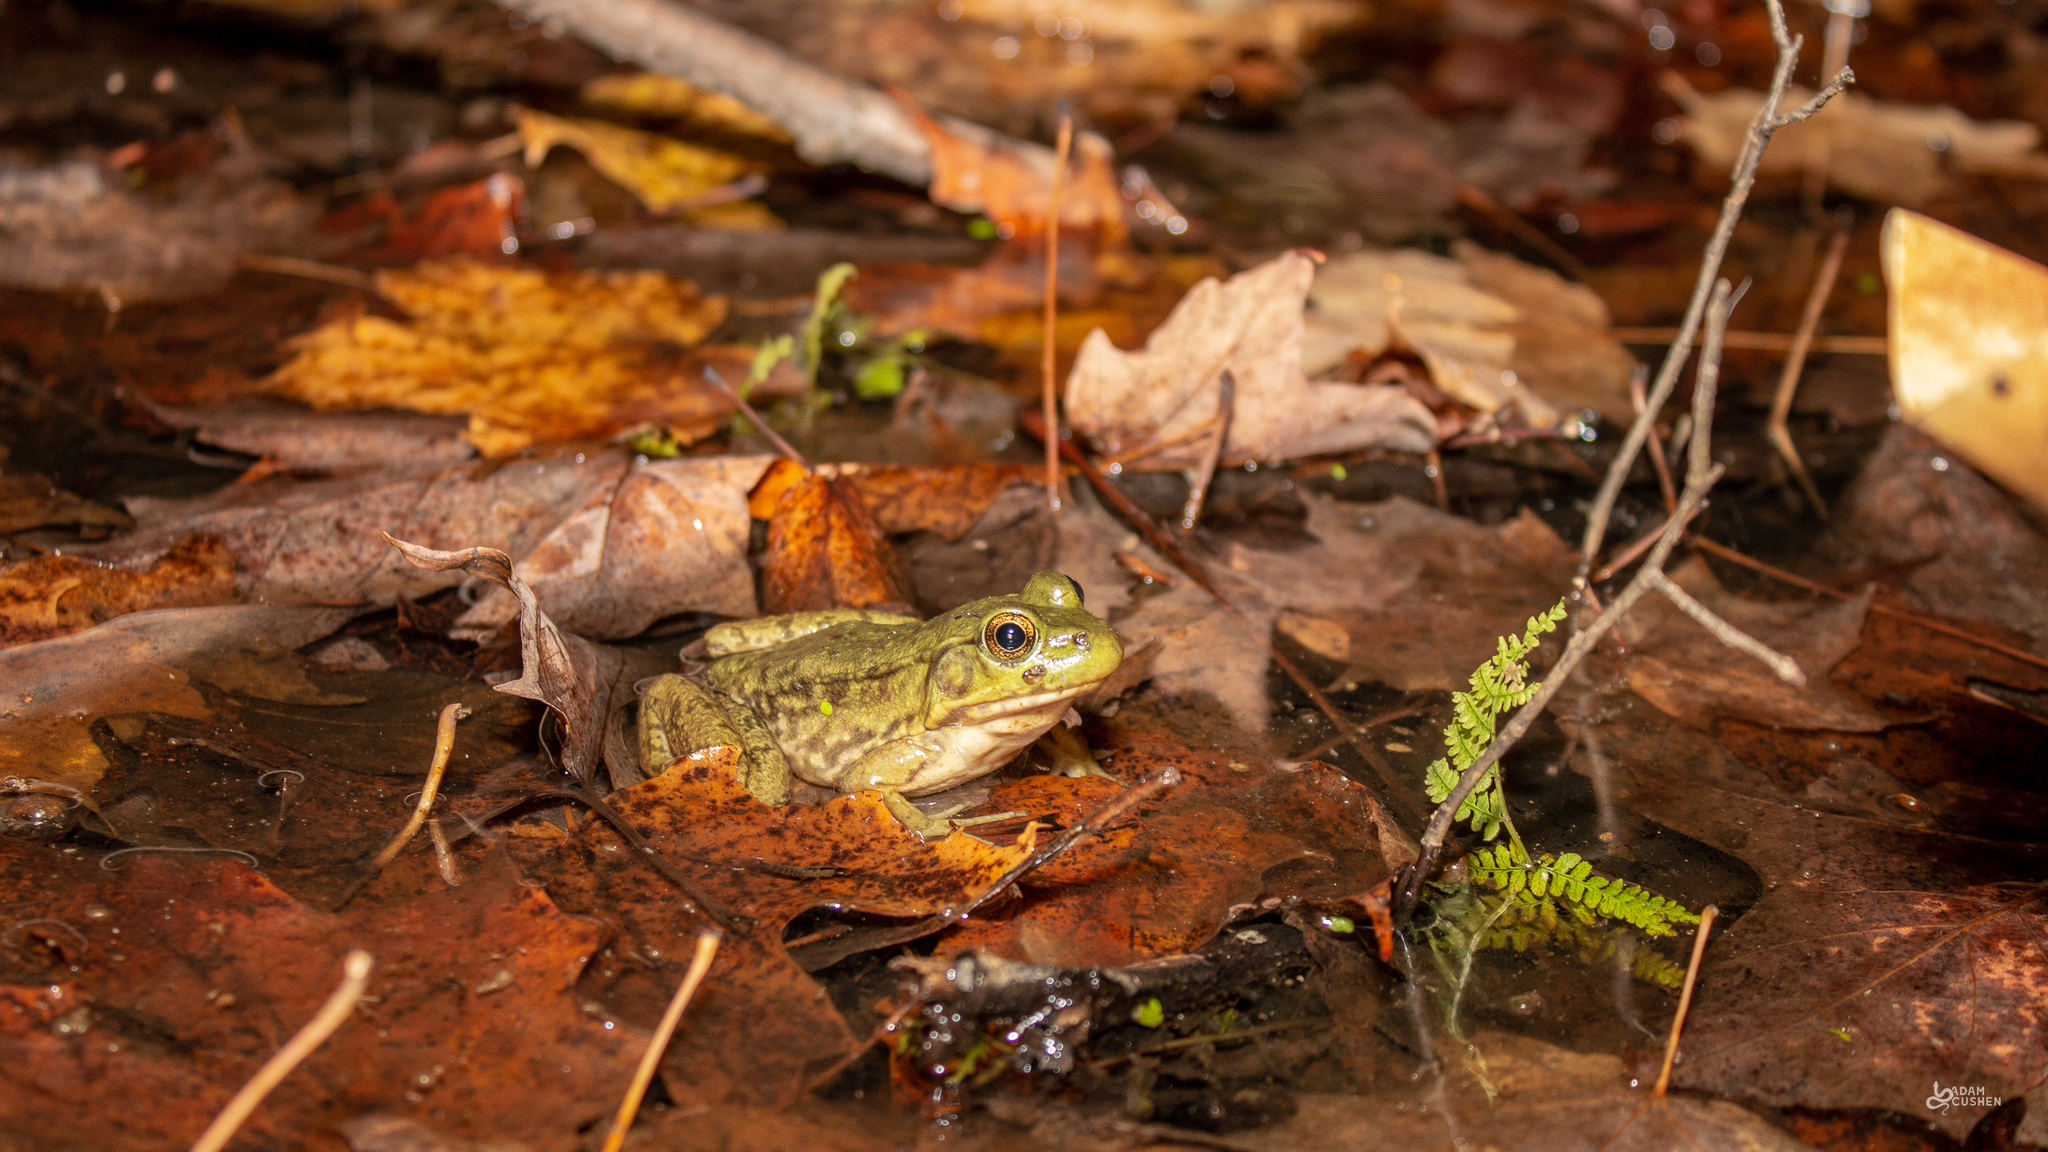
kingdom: Animalia
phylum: Chordata
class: Amphibia
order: Anura
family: Ranidae
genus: Lithobates
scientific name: Lithobates clamitans
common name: Green frog
